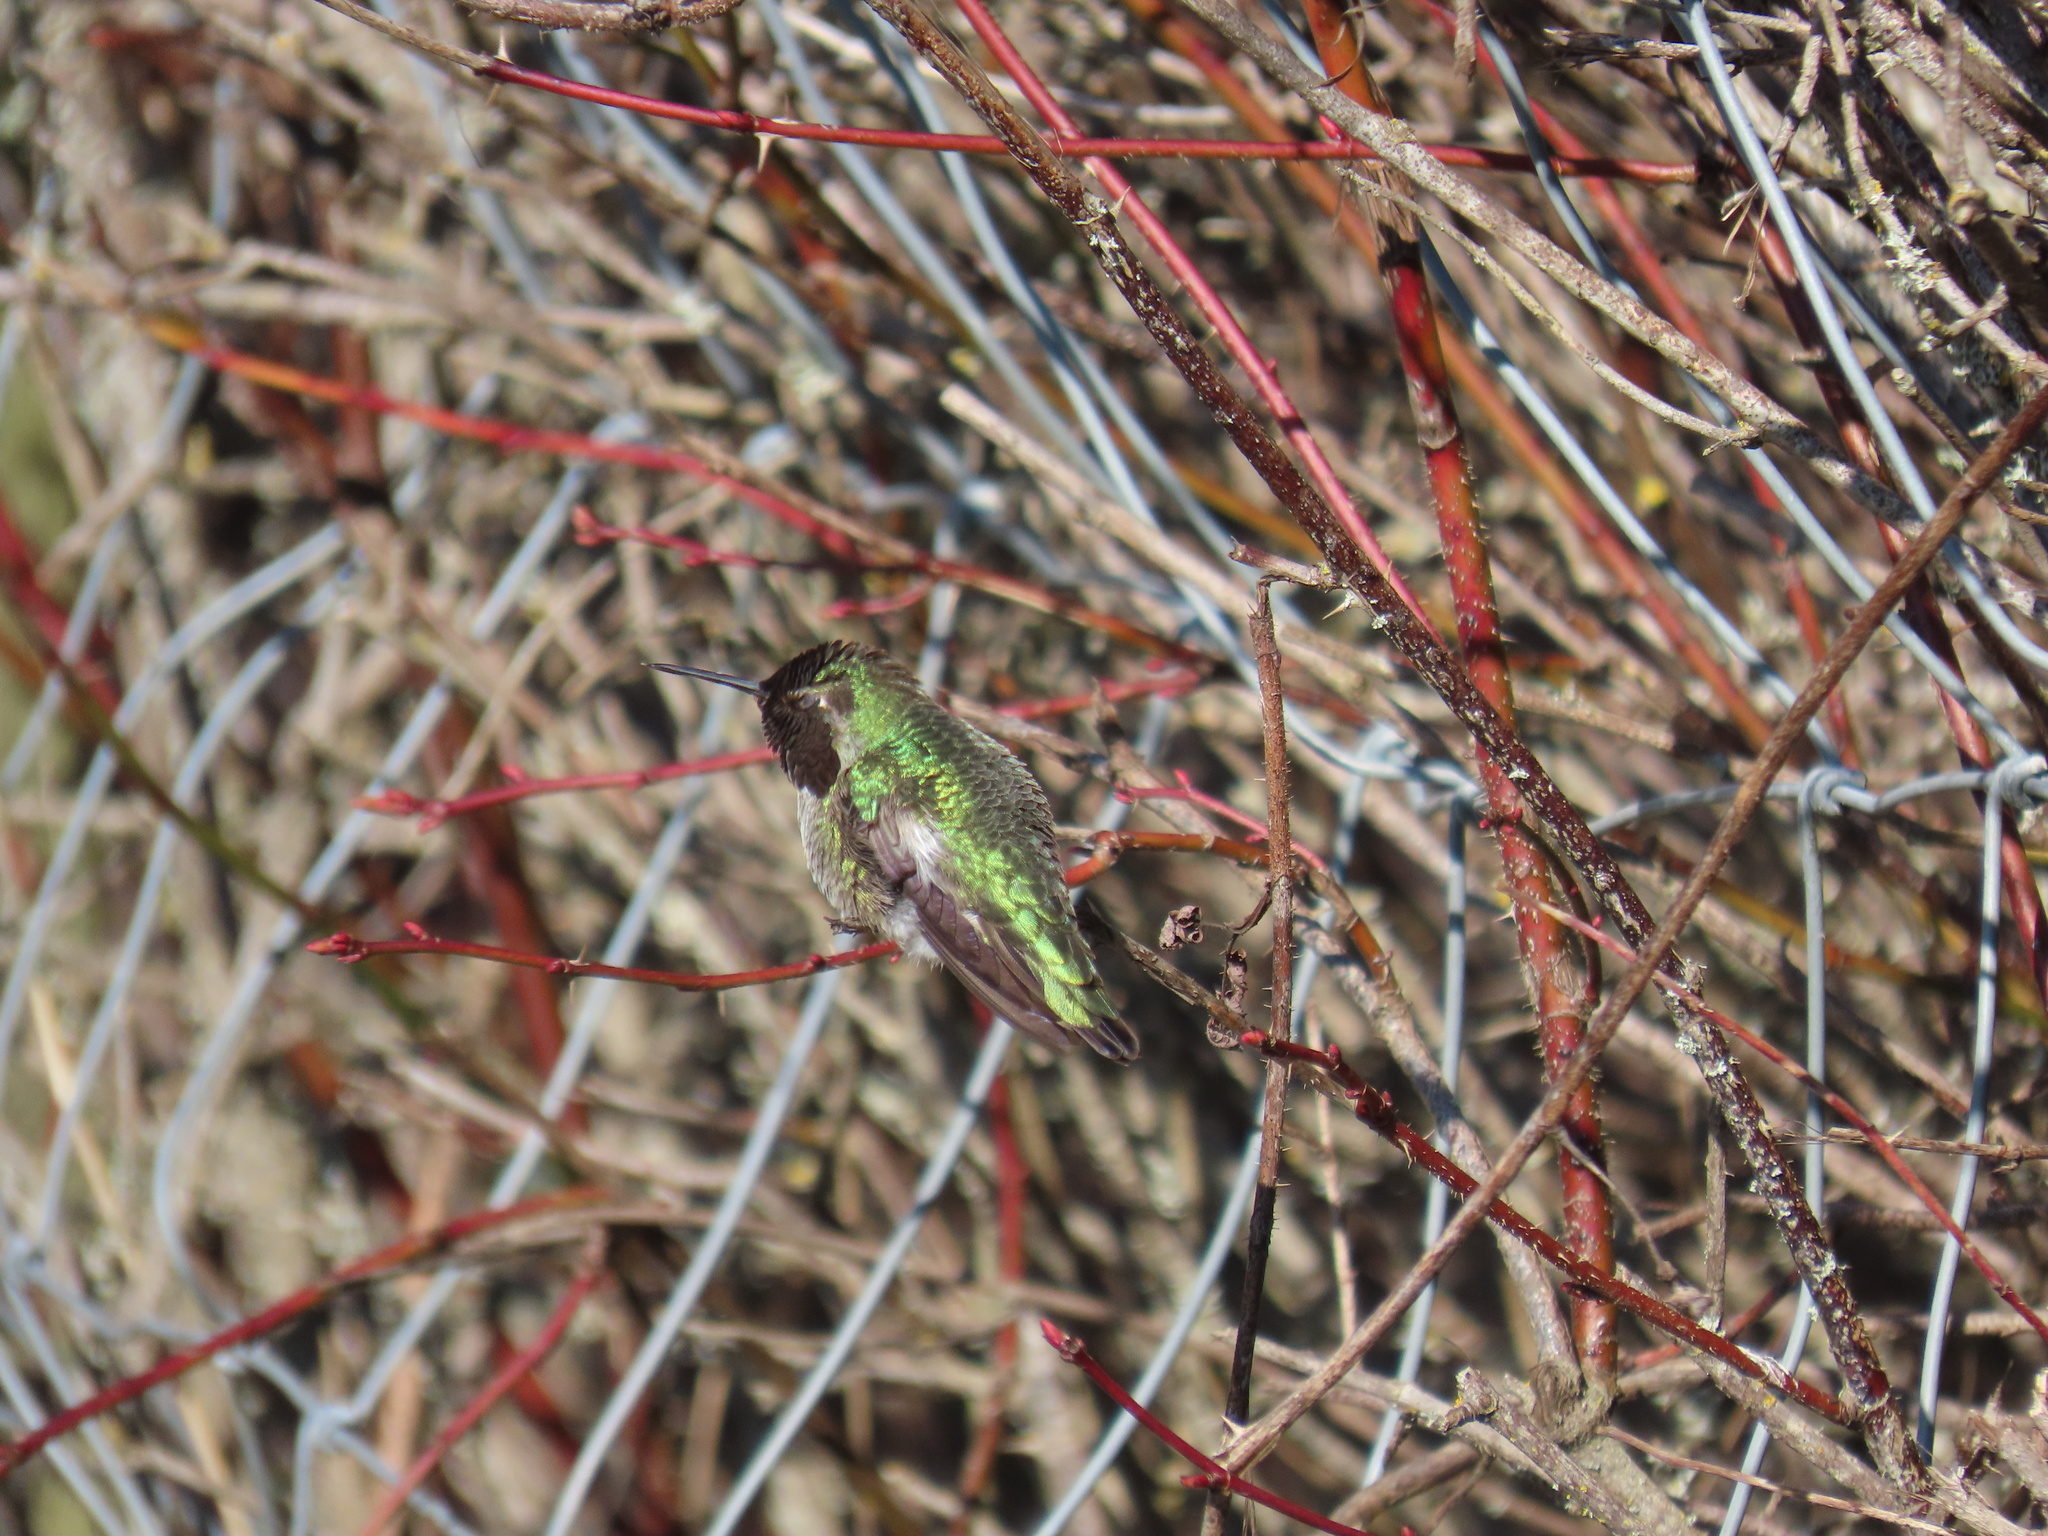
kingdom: Animalia
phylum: Chordata
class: Aves
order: Apodiformes
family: Trochilidae
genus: Calypte
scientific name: Calypte anna
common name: Anna's hummingbird
